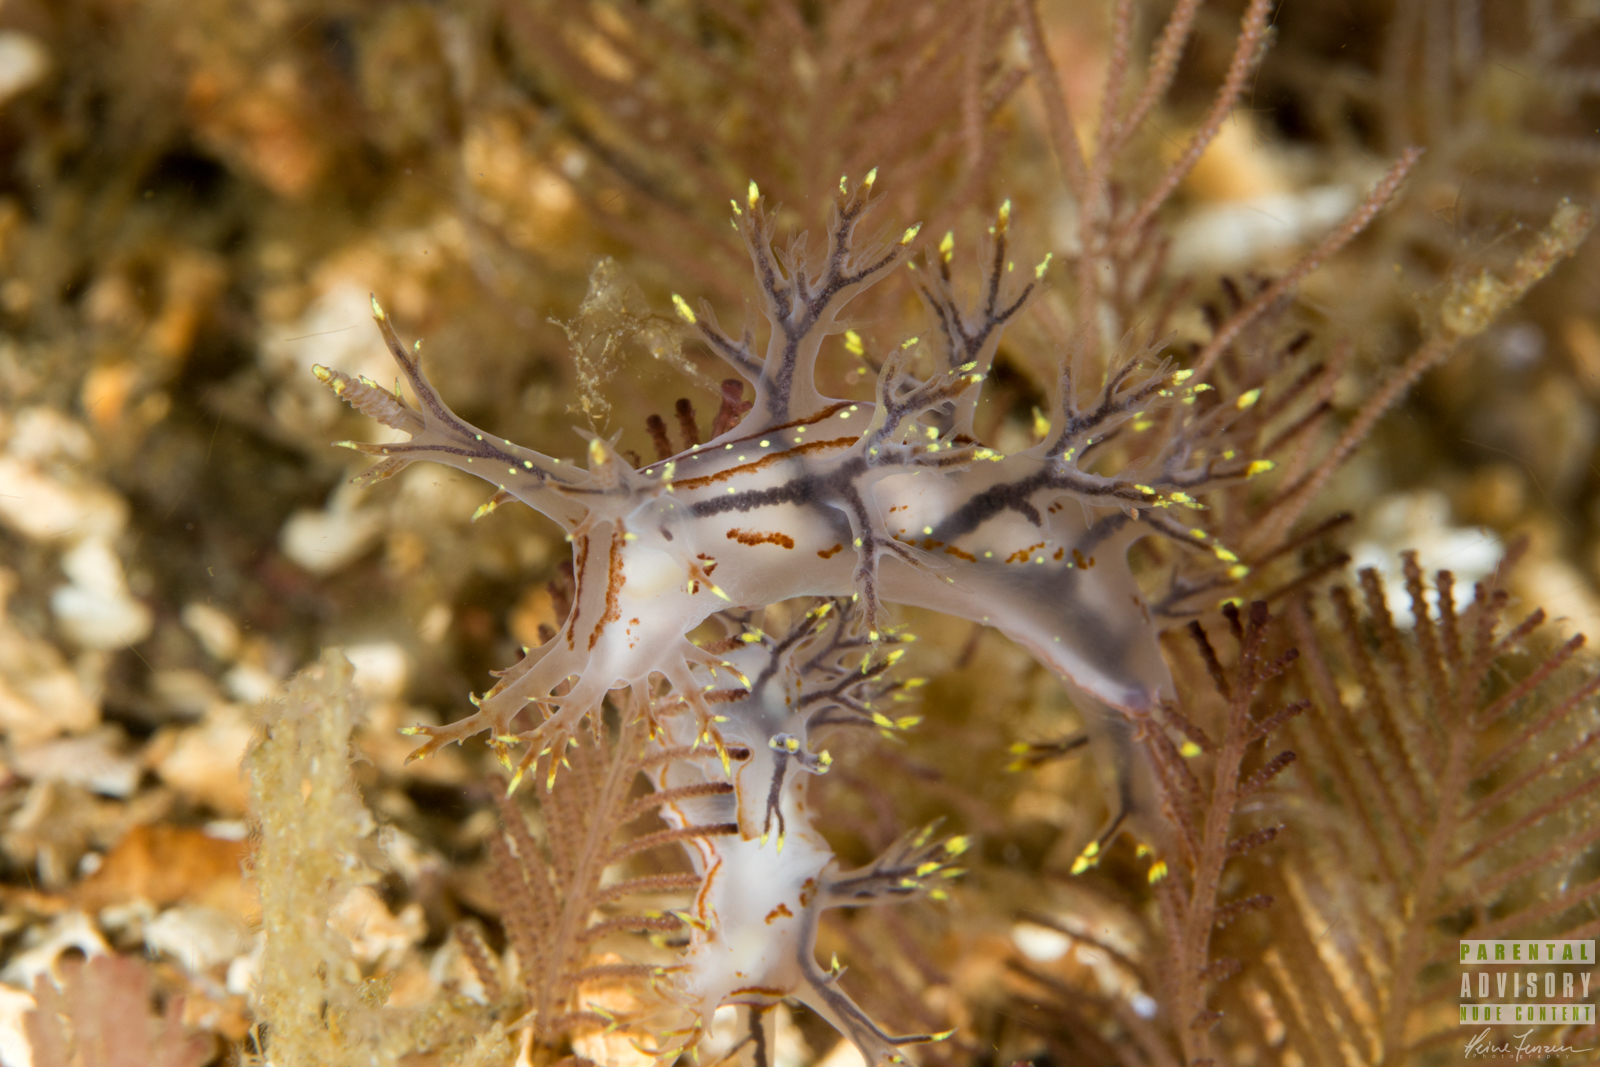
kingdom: Animalia
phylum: Mollusca
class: Gastropoda
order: Nudibranchia
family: Dendronotidae
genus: Dendronotus
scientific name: Dendronotus yrjargul
